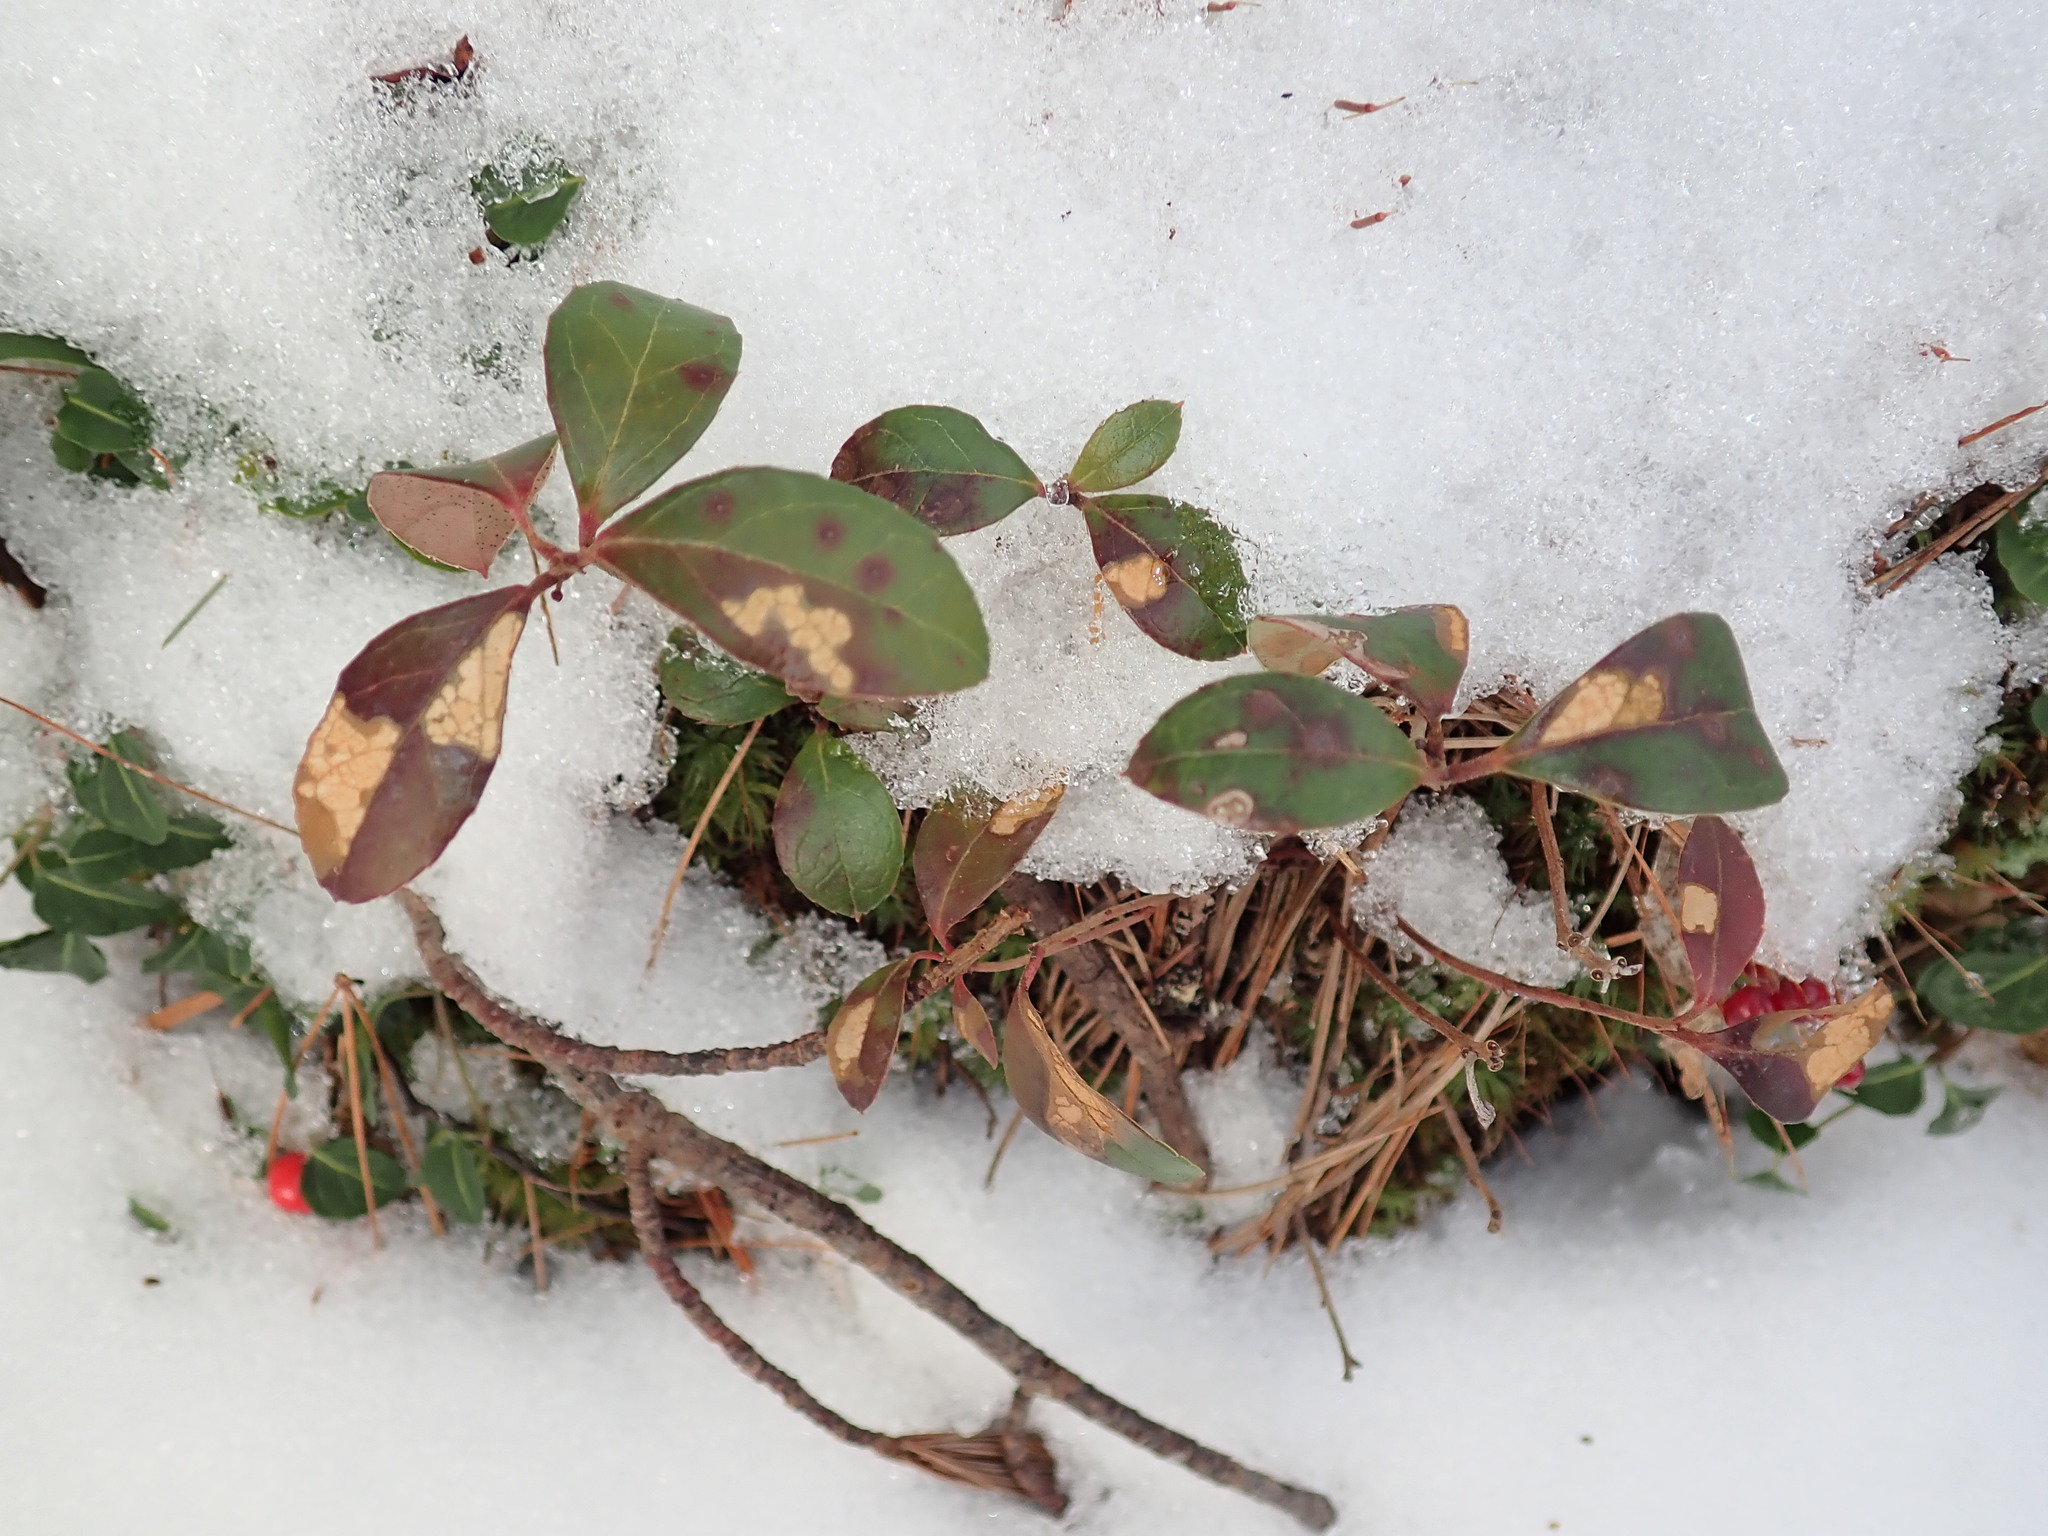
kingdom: Plantae
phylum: Tracheophyta
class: Magnoliopsida
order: Ericales
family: Ericaceae
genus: Gaultheria
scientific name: Gaultheria procumbens
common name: Checkerberry
